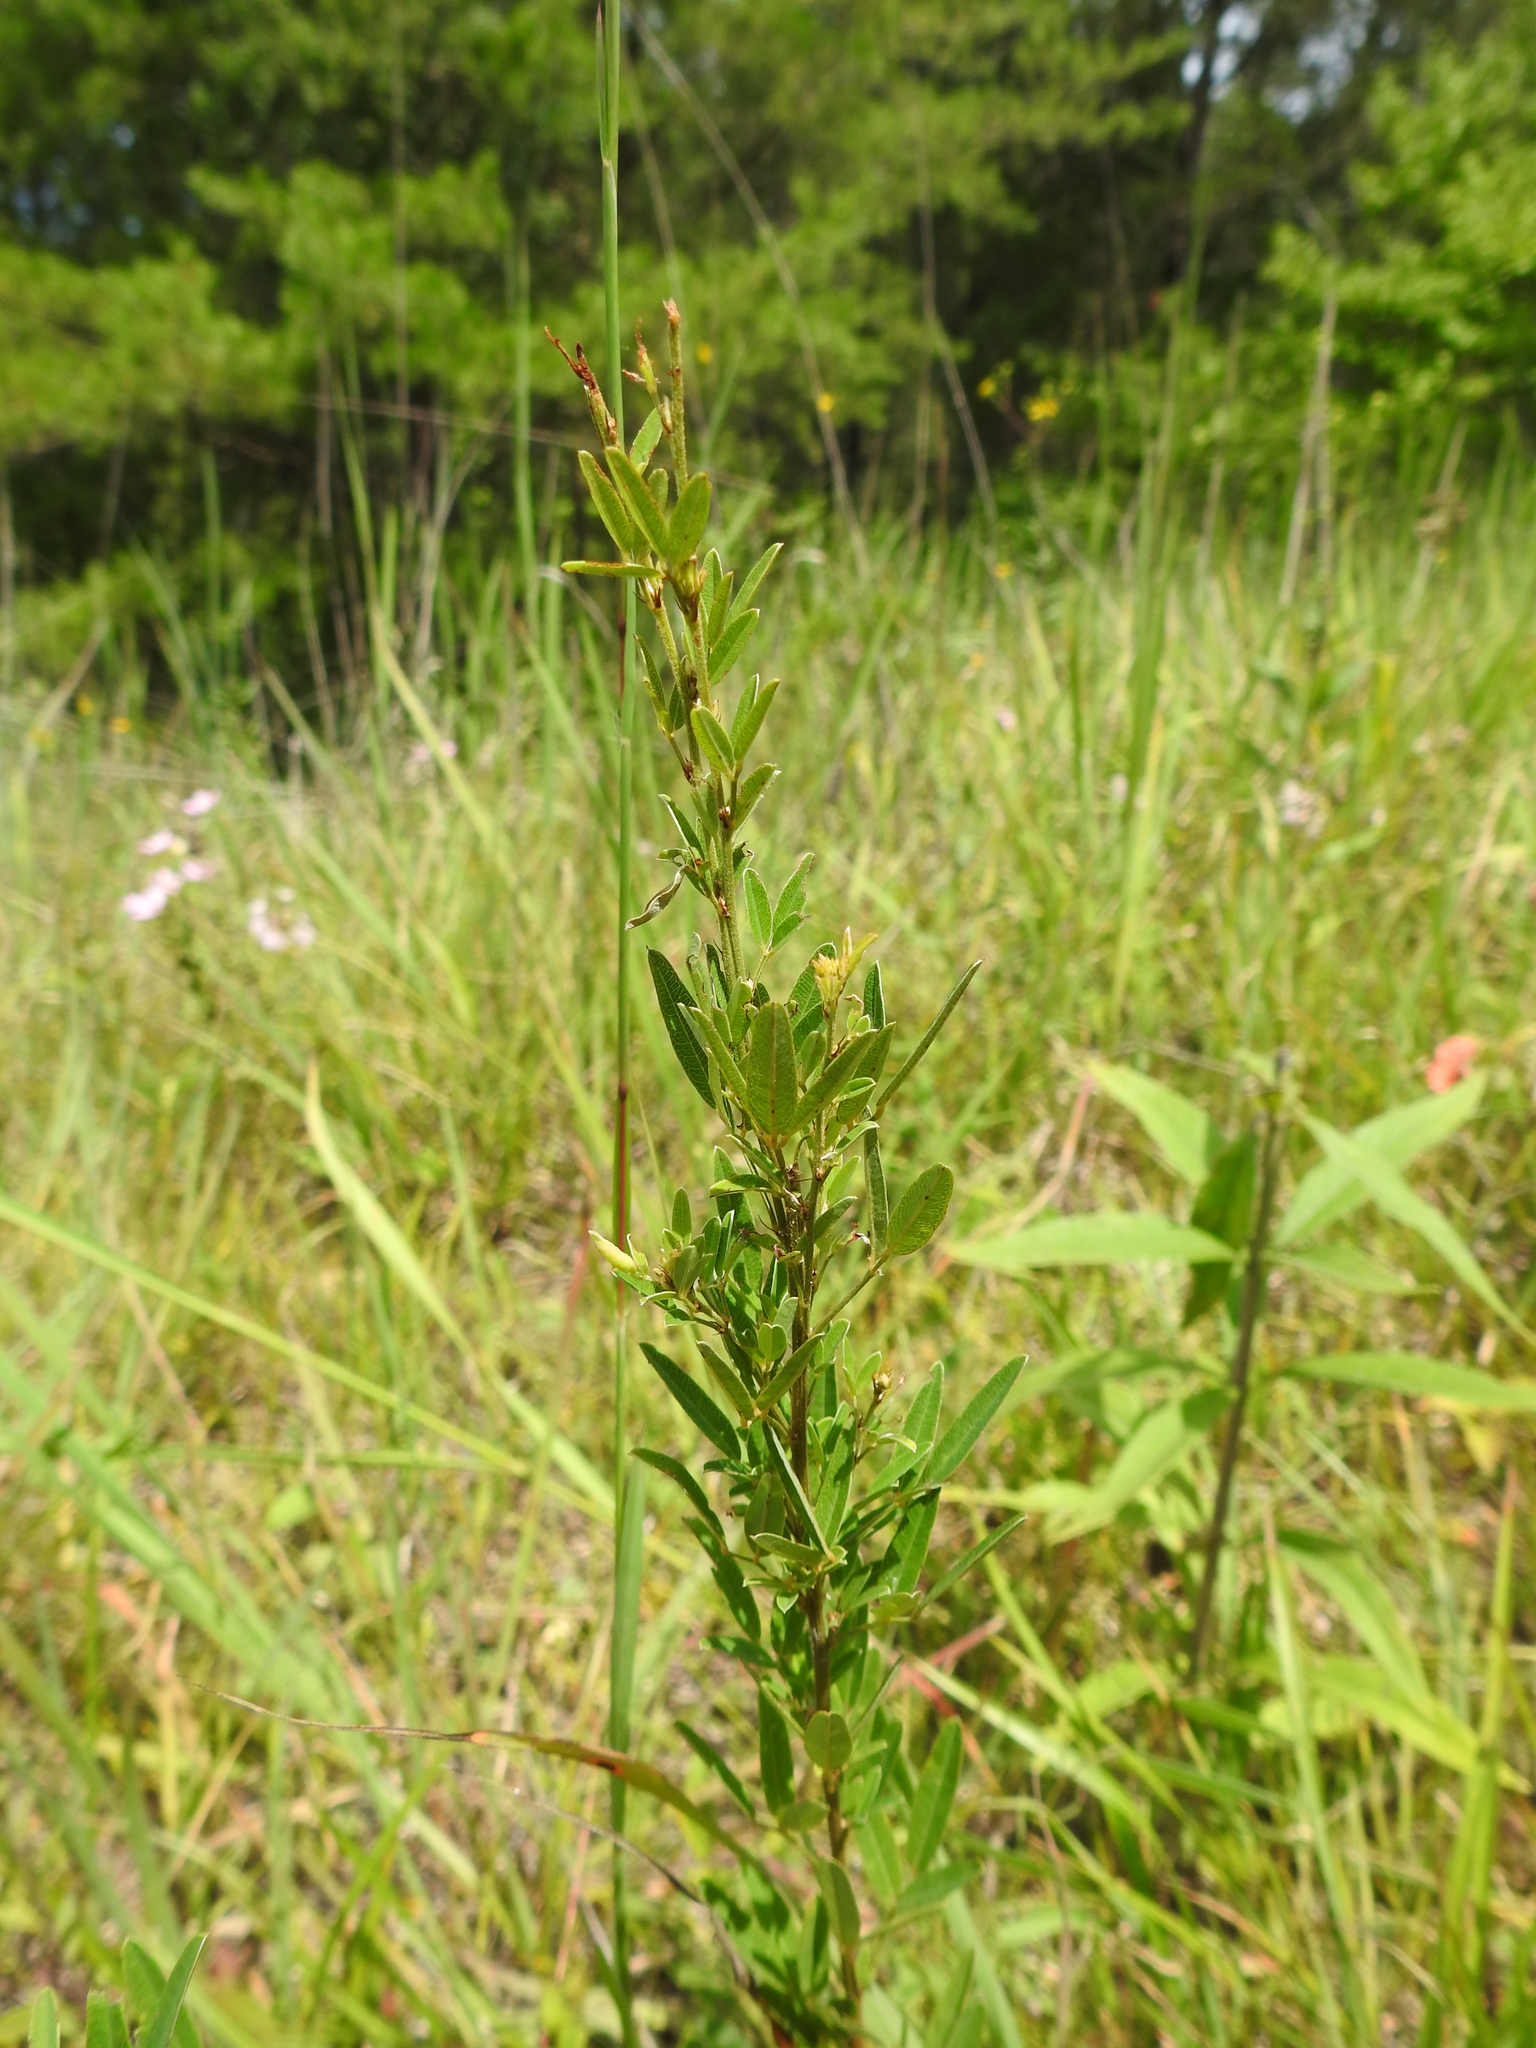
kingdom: Plantae
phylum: Tracheophyta
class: Magnoliopsida
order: Fabales
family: Fabaceae
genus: Lespedeza
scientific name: Lespedeza virginica
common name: Slender bush-clover
